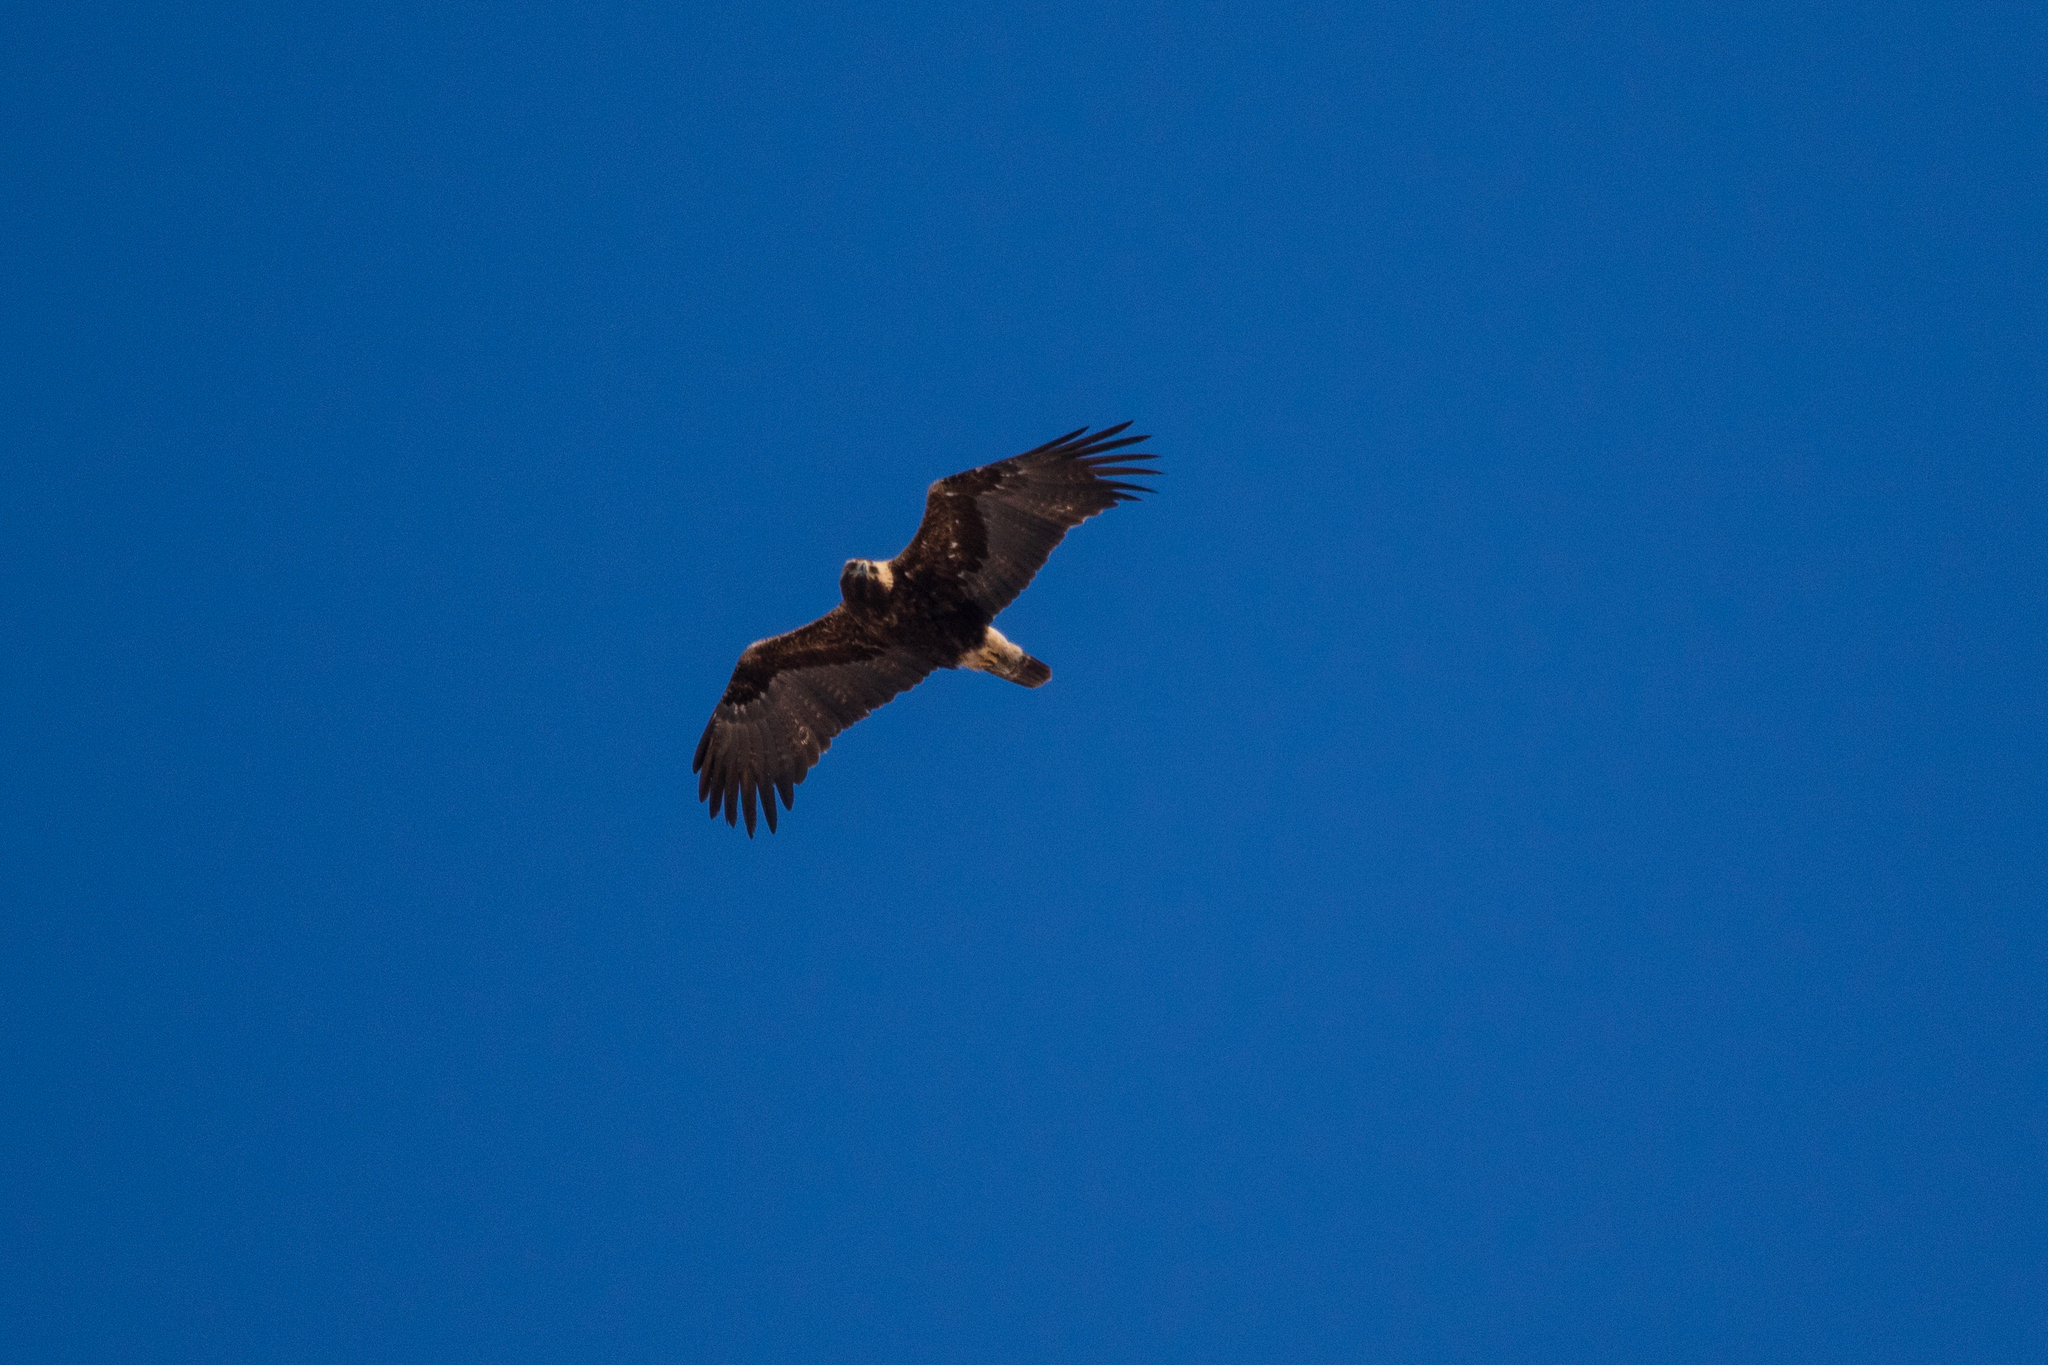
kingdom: Animalia
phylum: Chordata
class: Aves
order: Accipitriformes
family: Accipitridae
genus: Aquila
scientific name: Aquila heliaca
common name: Eastern imperial eagle
